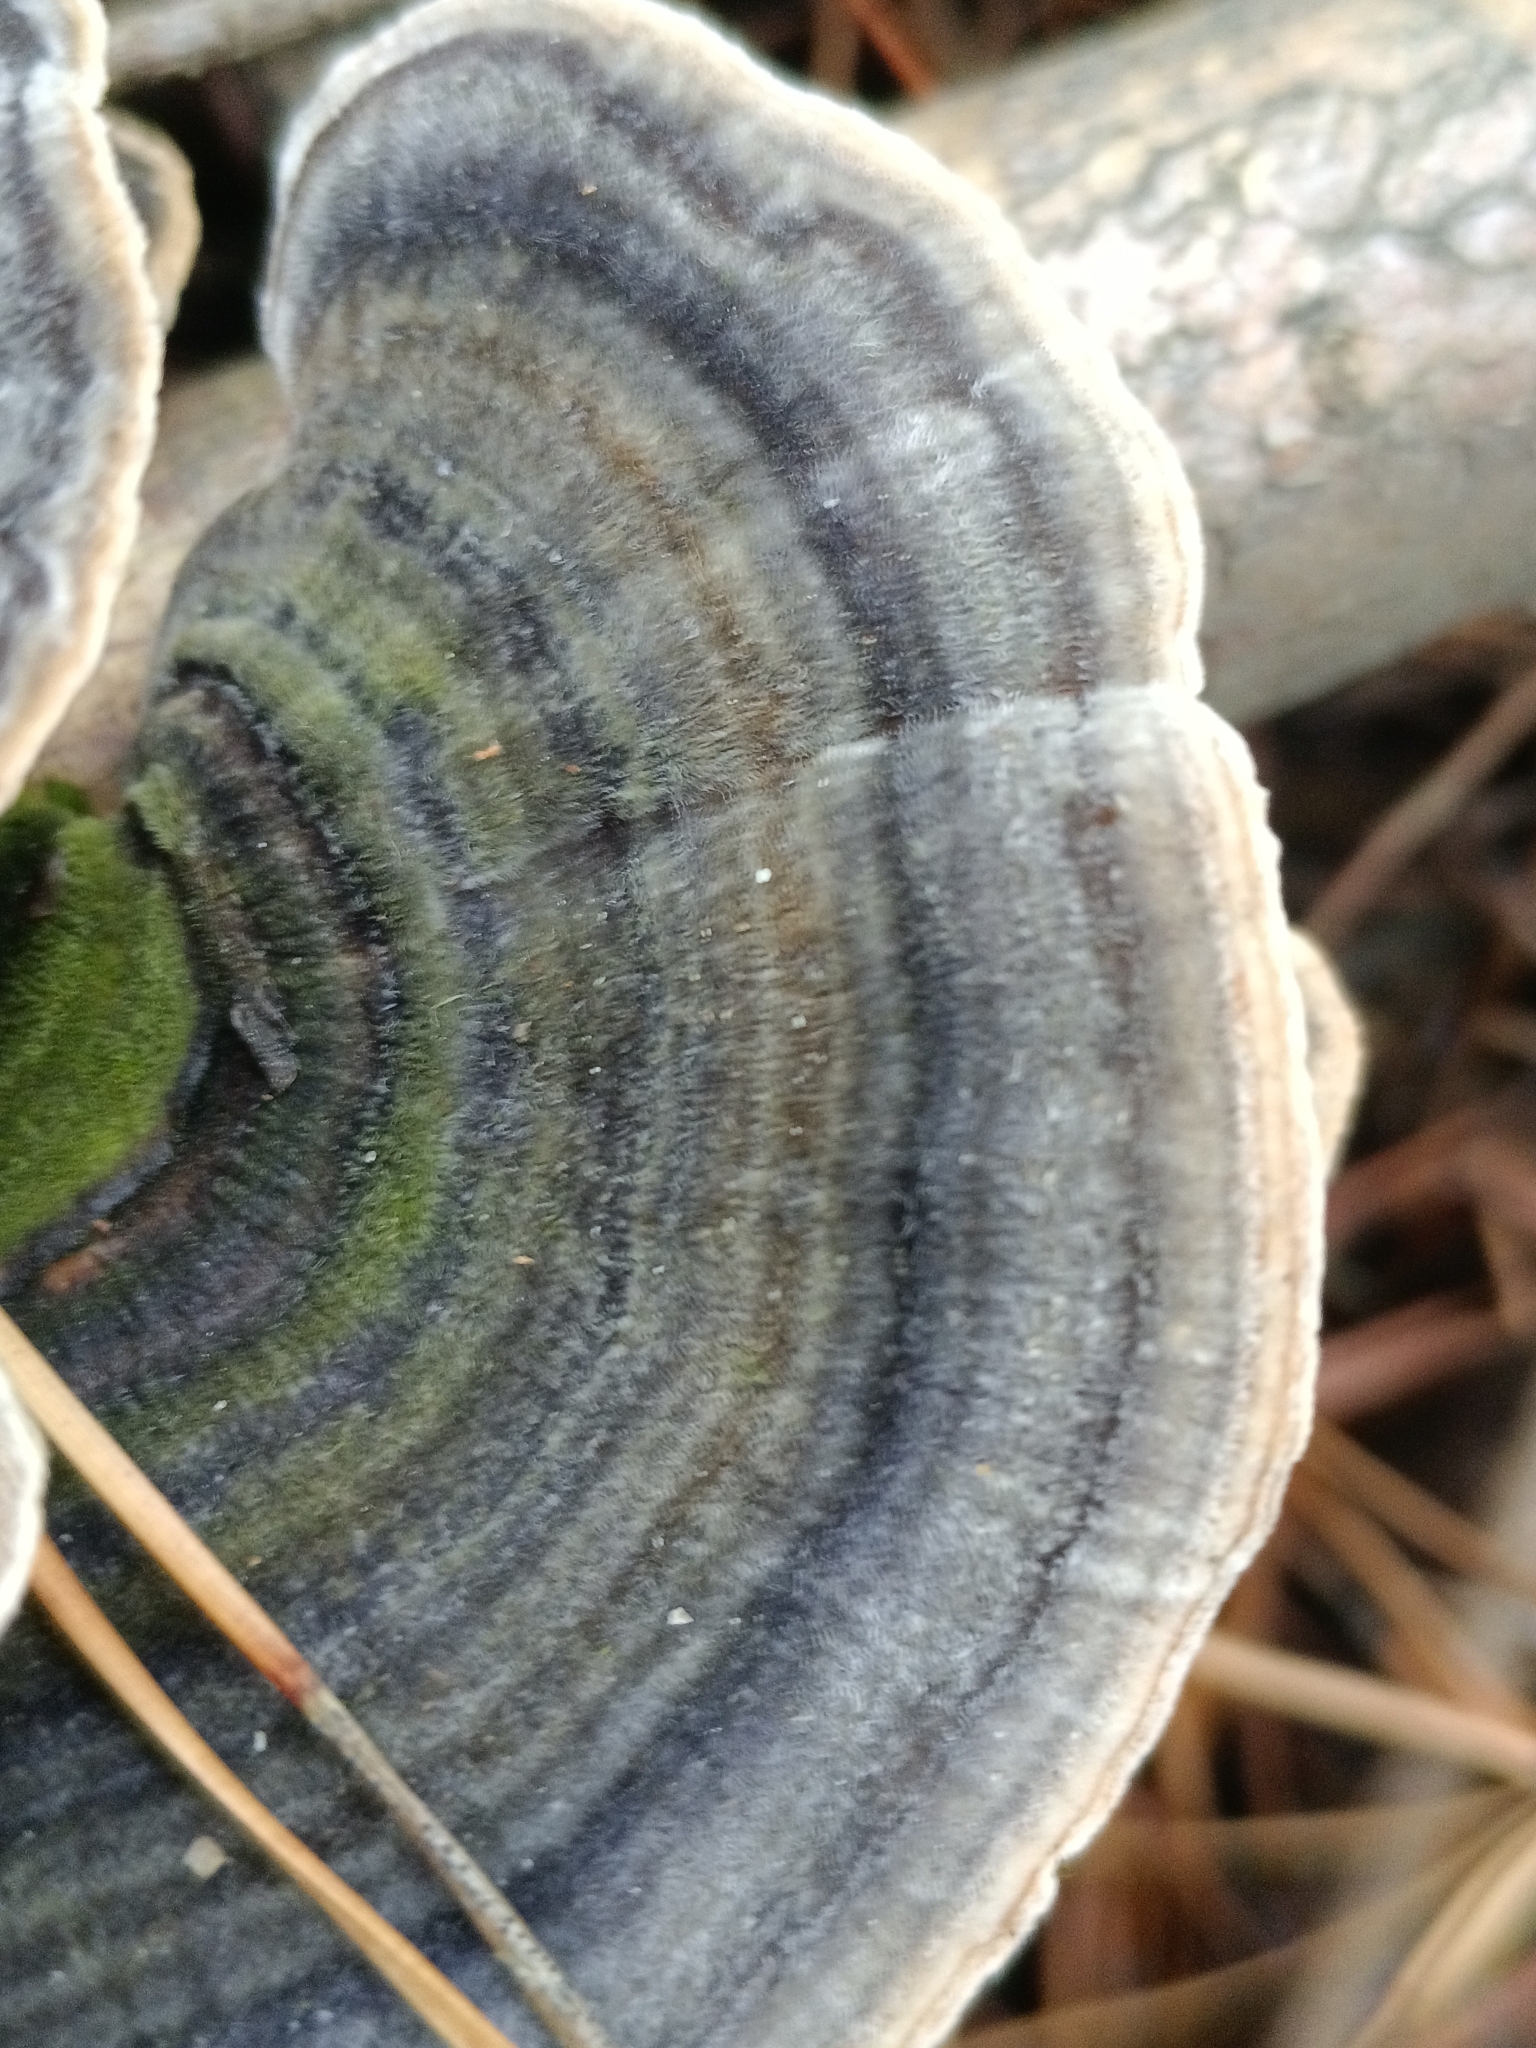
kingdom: Fungi
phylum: Basidiomycota
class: Agaricomycetes
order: Polyporales
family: Polyporaceae
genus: Trametes
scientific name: Trametes versicolor
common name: Turkeytail
